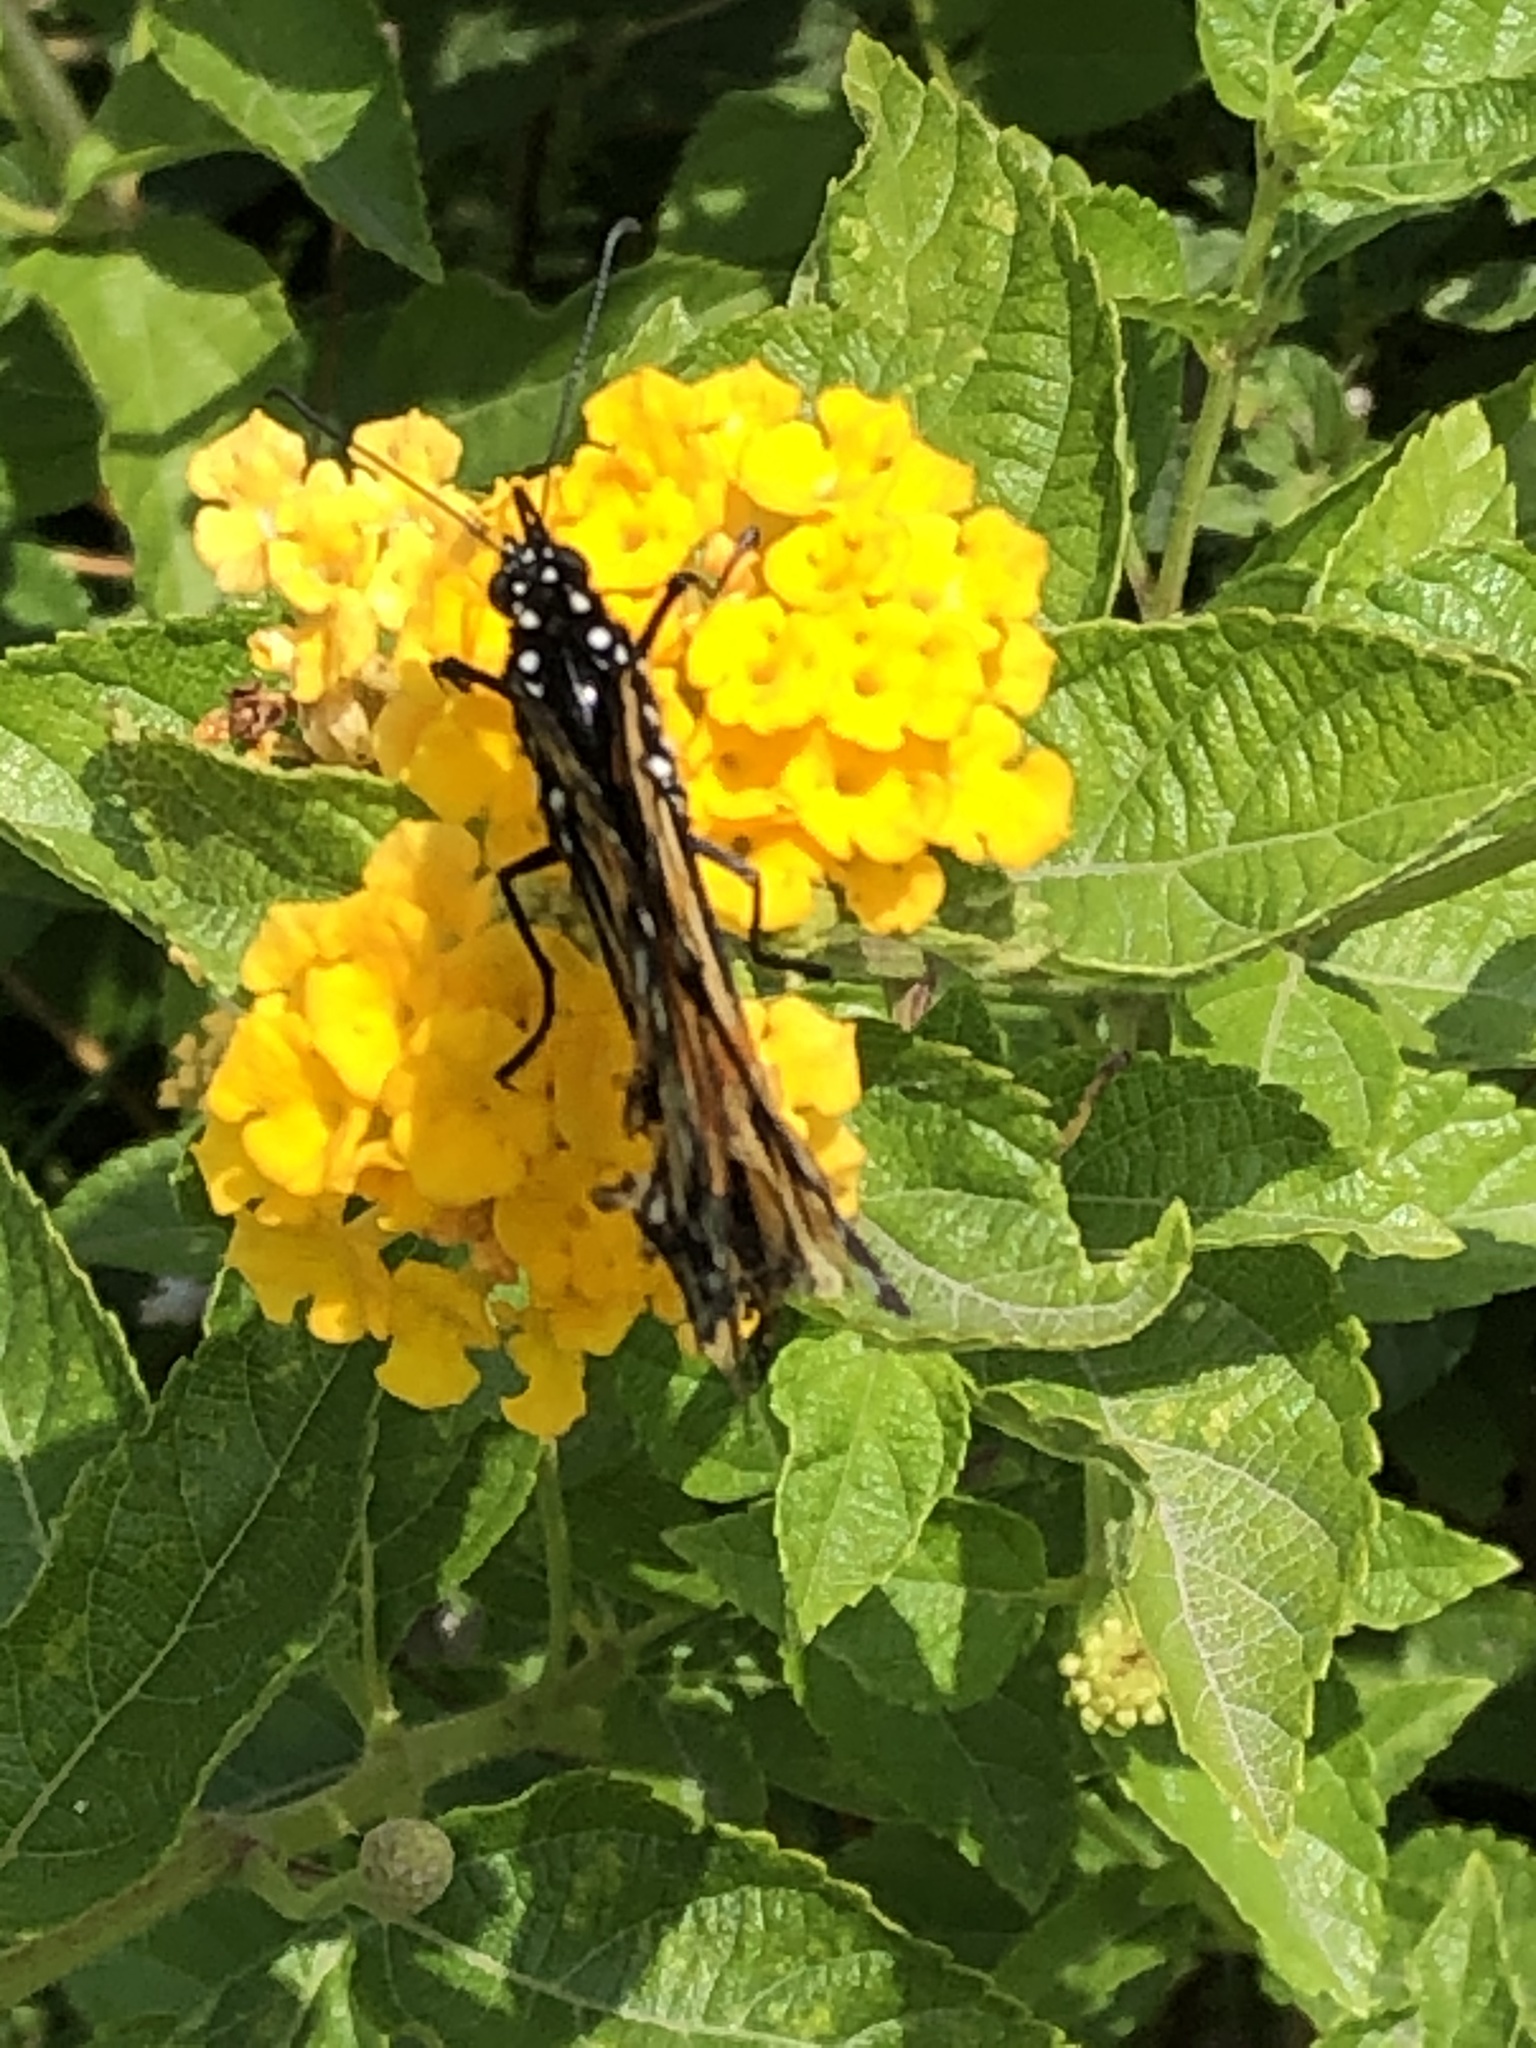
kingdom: Animalia
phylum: Arthropoda
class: Insecta
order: Lepidoptera
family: Nymphalidae
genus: Danaus
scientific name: Danaus plexippus
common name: Monarch
